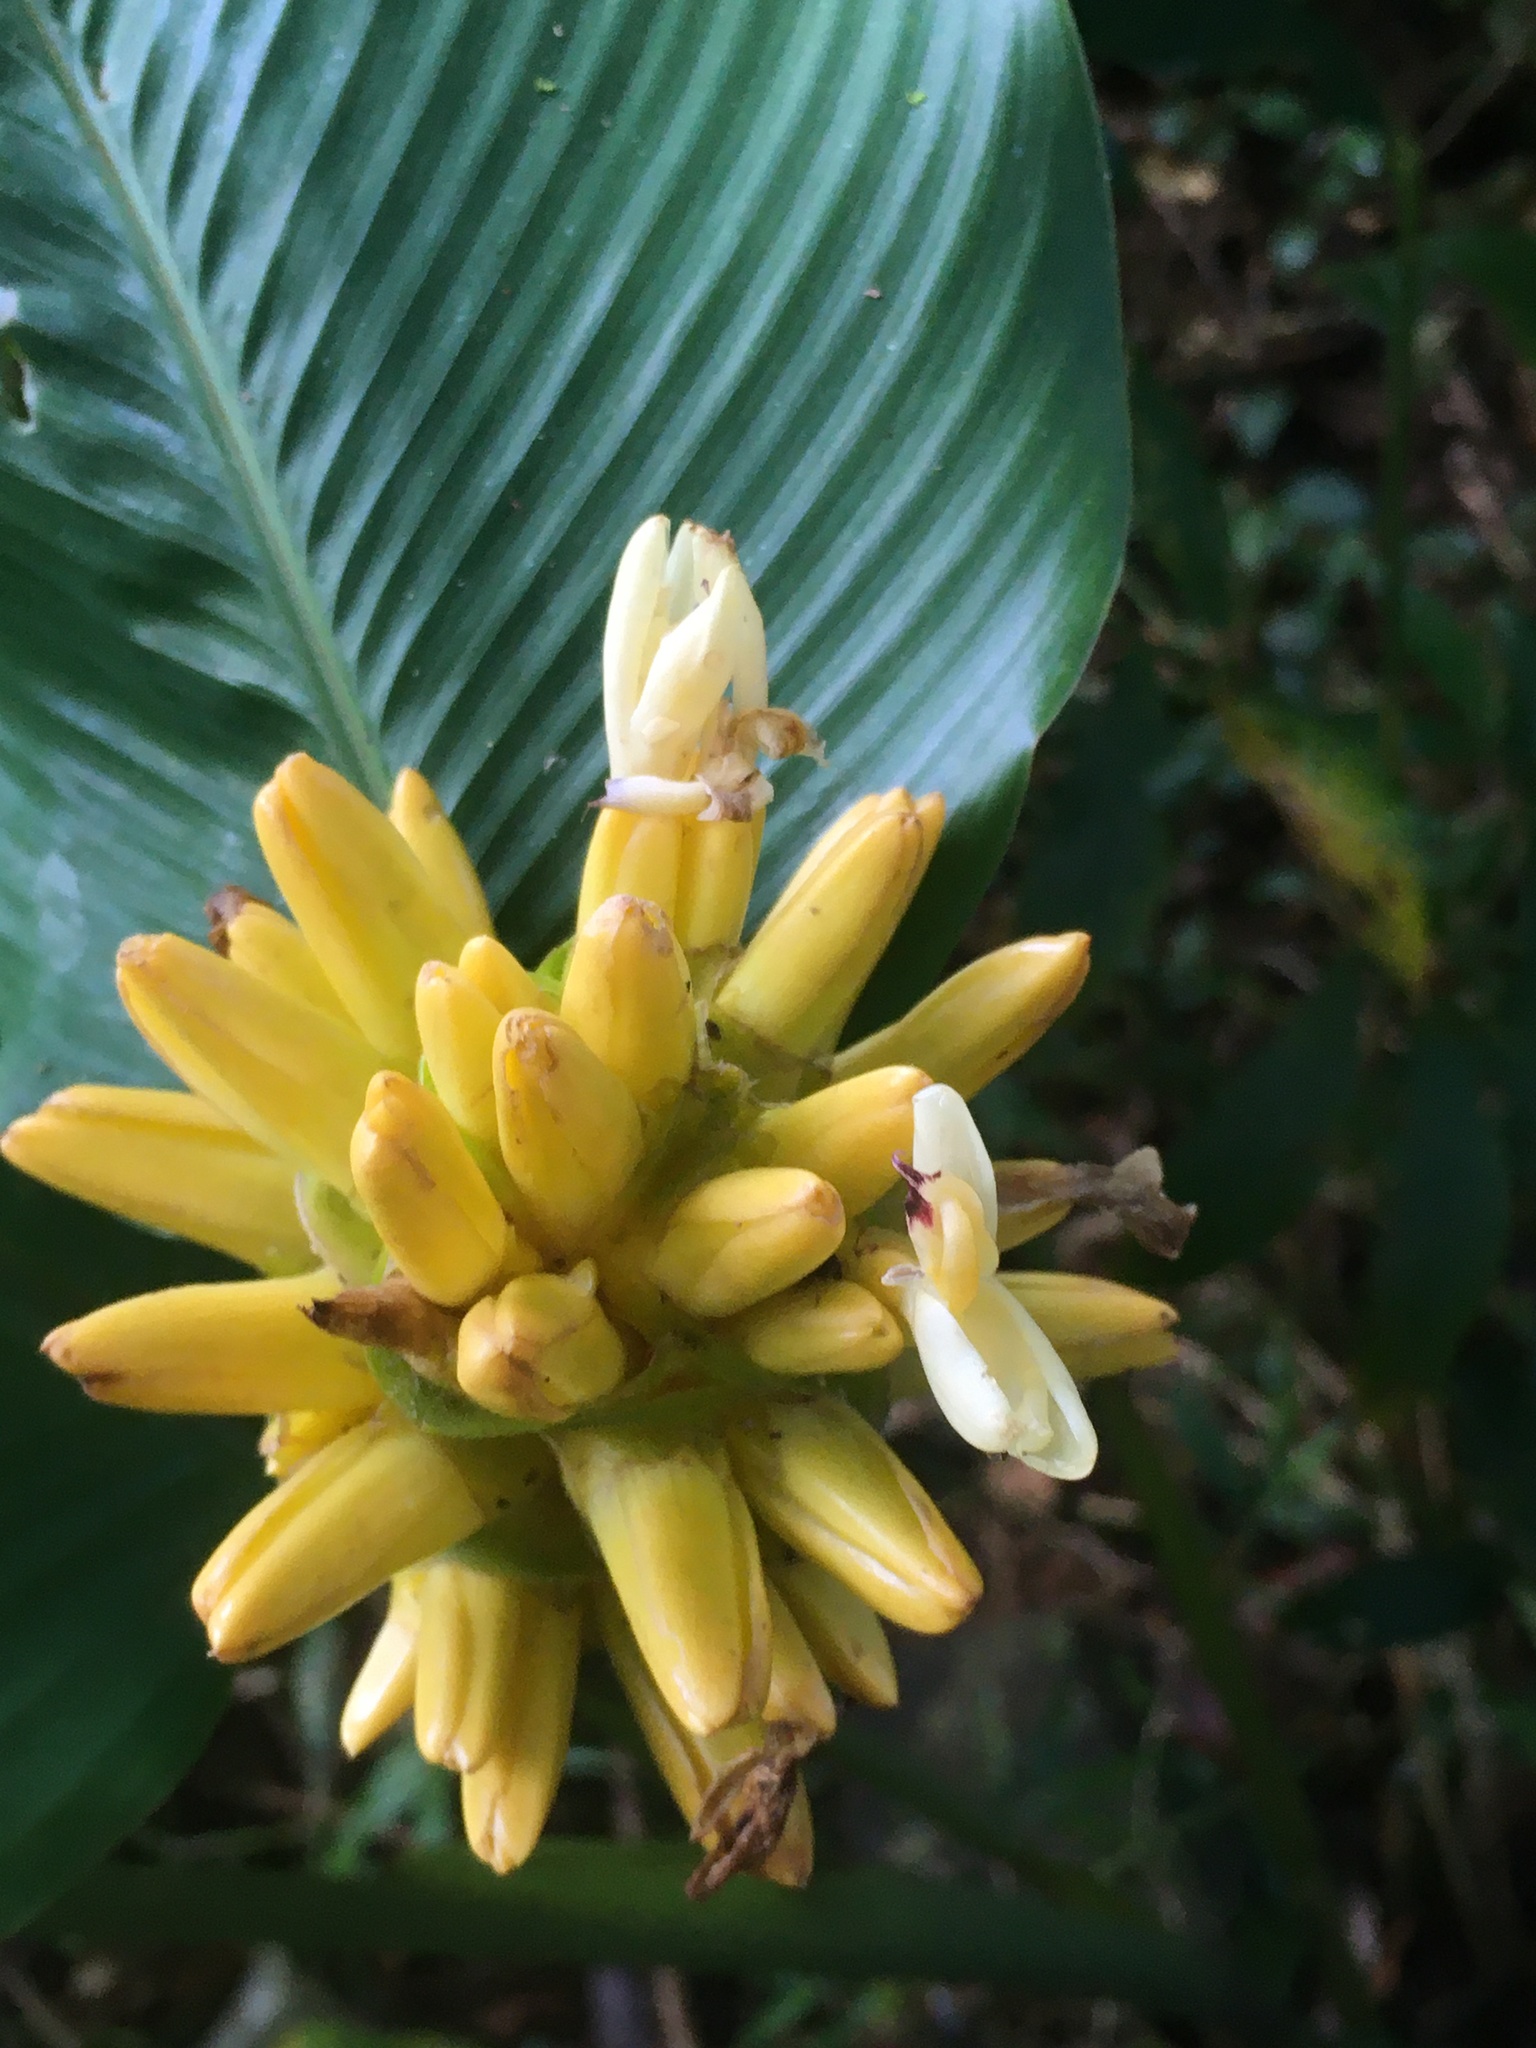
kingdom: Plantae
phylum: Tracheophyta
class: Liliopsida
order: Zingiberales
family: Marantaceae
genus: Goeppertia
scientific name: Goeppertia marantifolia
